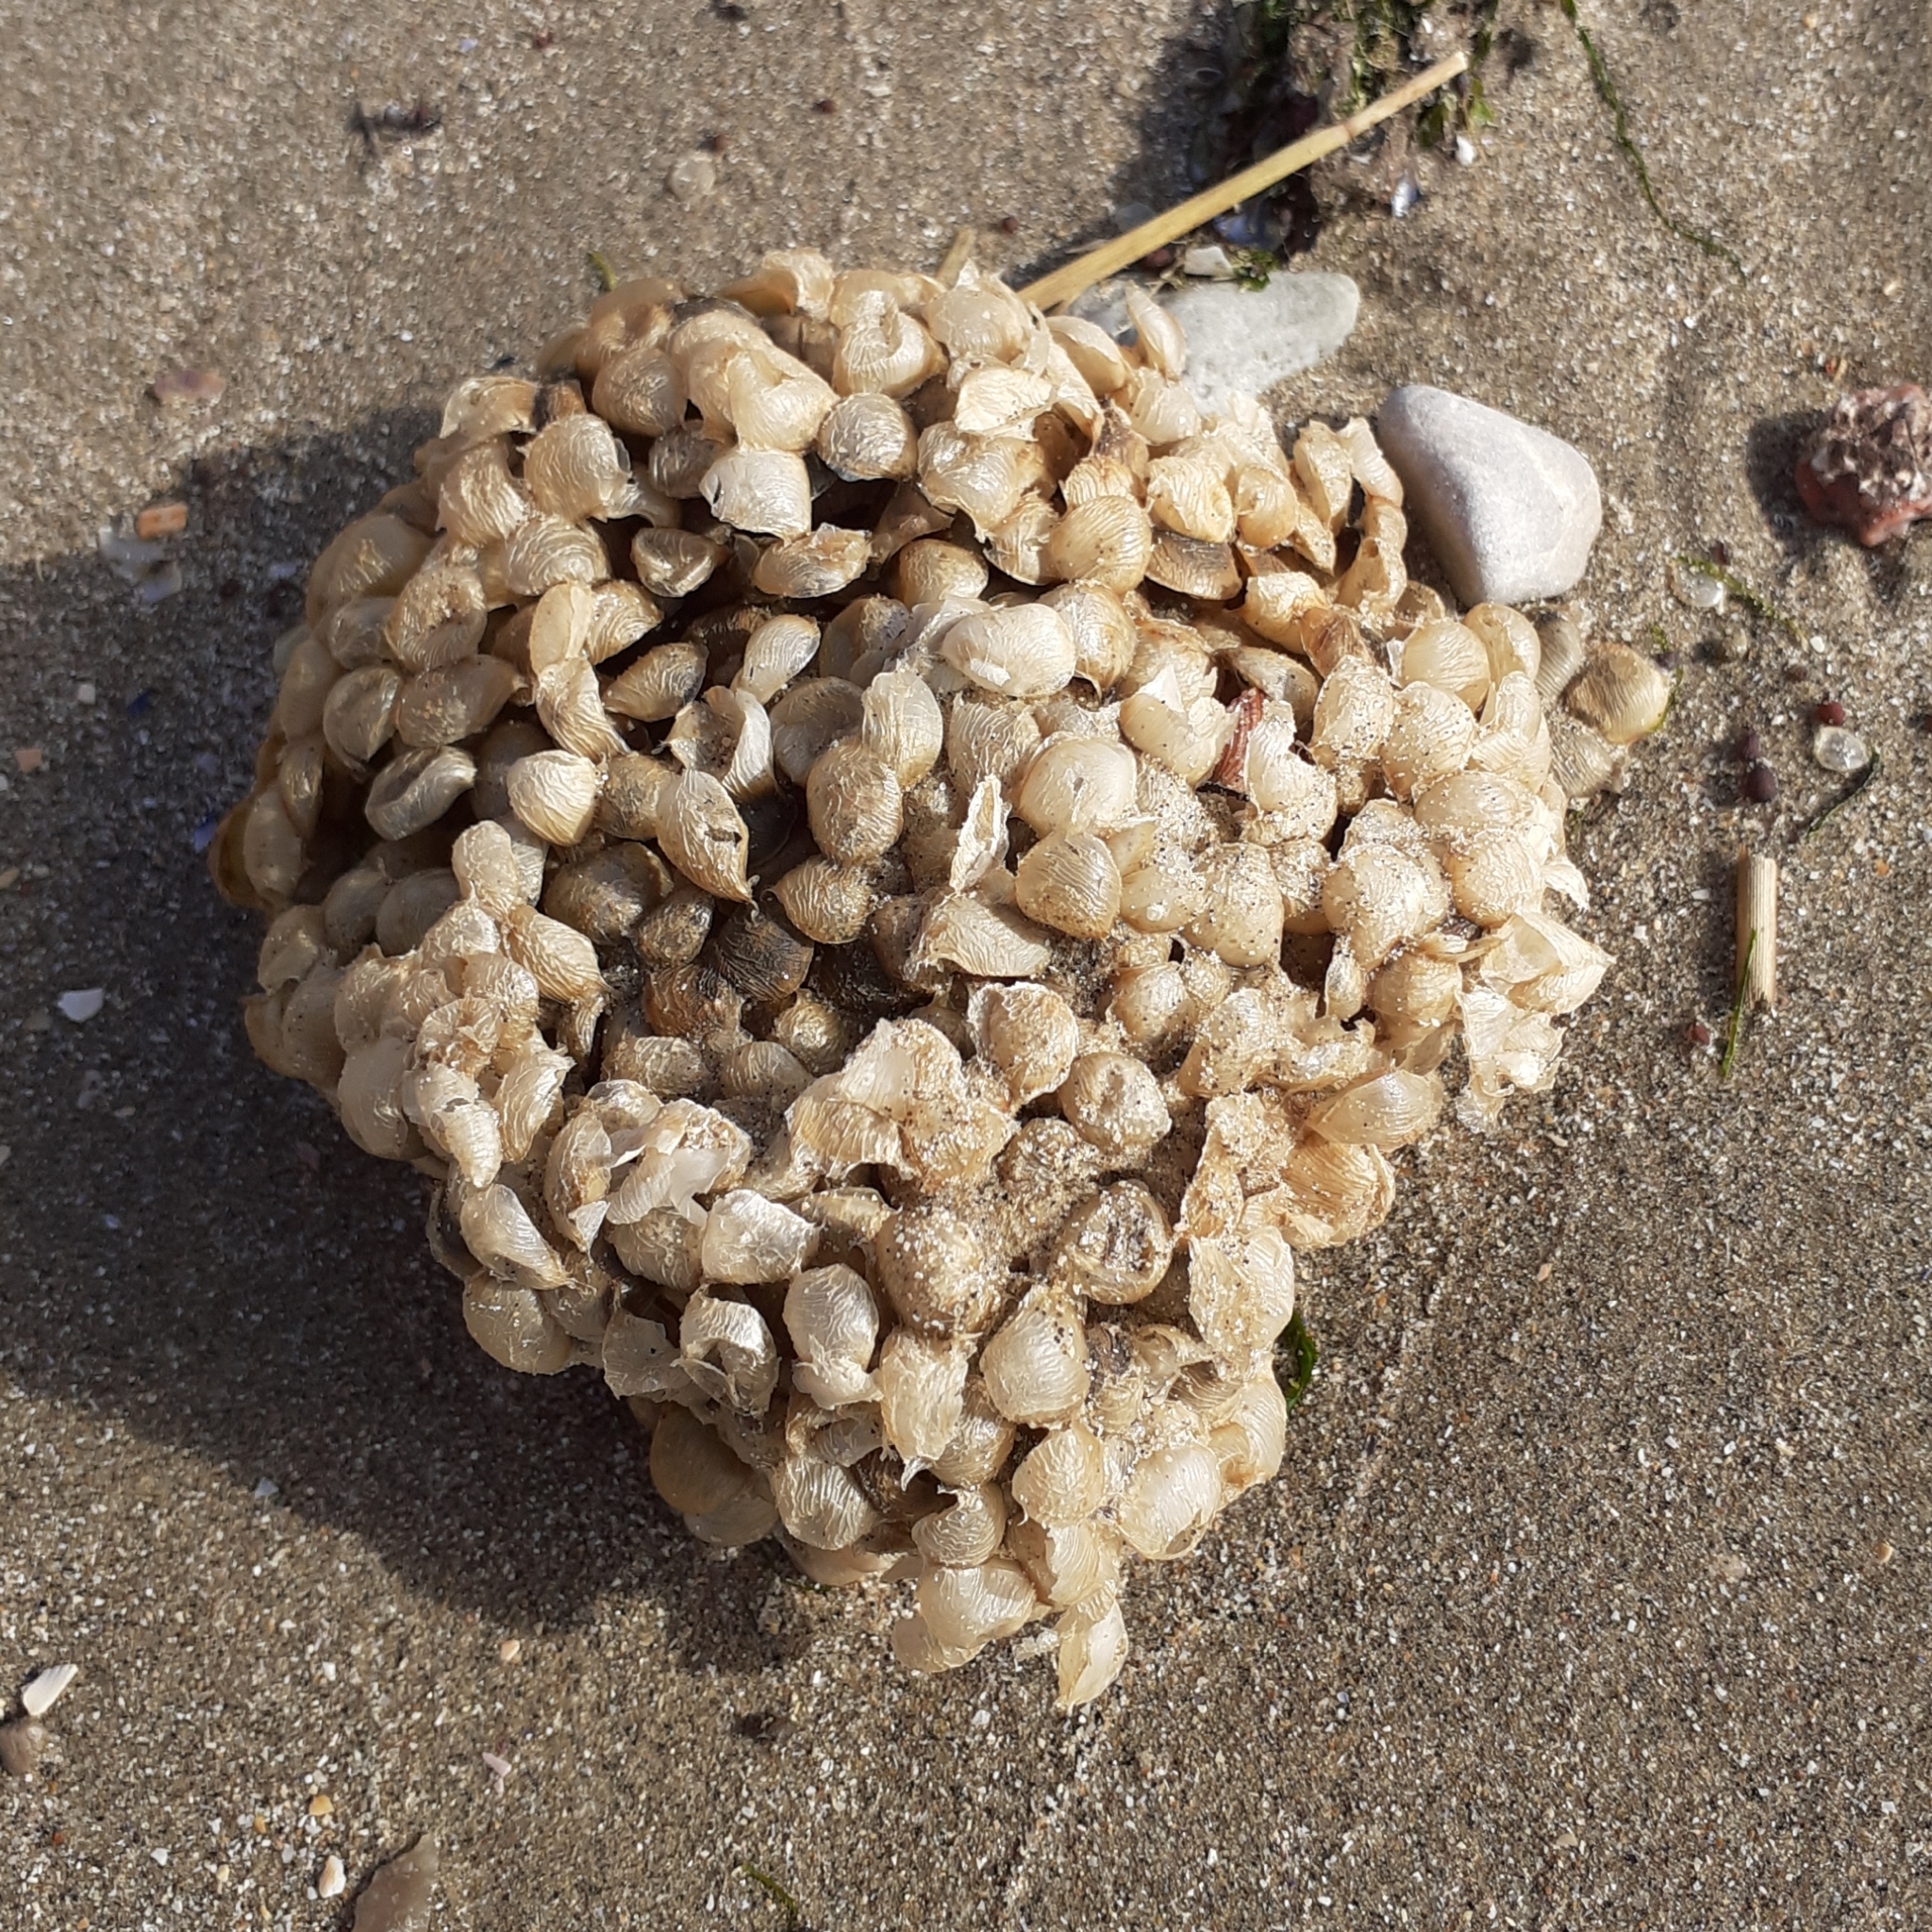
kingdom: Animalia
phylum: Mollusca
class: Gastropoda
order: Neogastropoda
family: Buccinidae
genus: Buccinum
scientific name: Buccinum undatum
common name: Common whelk
